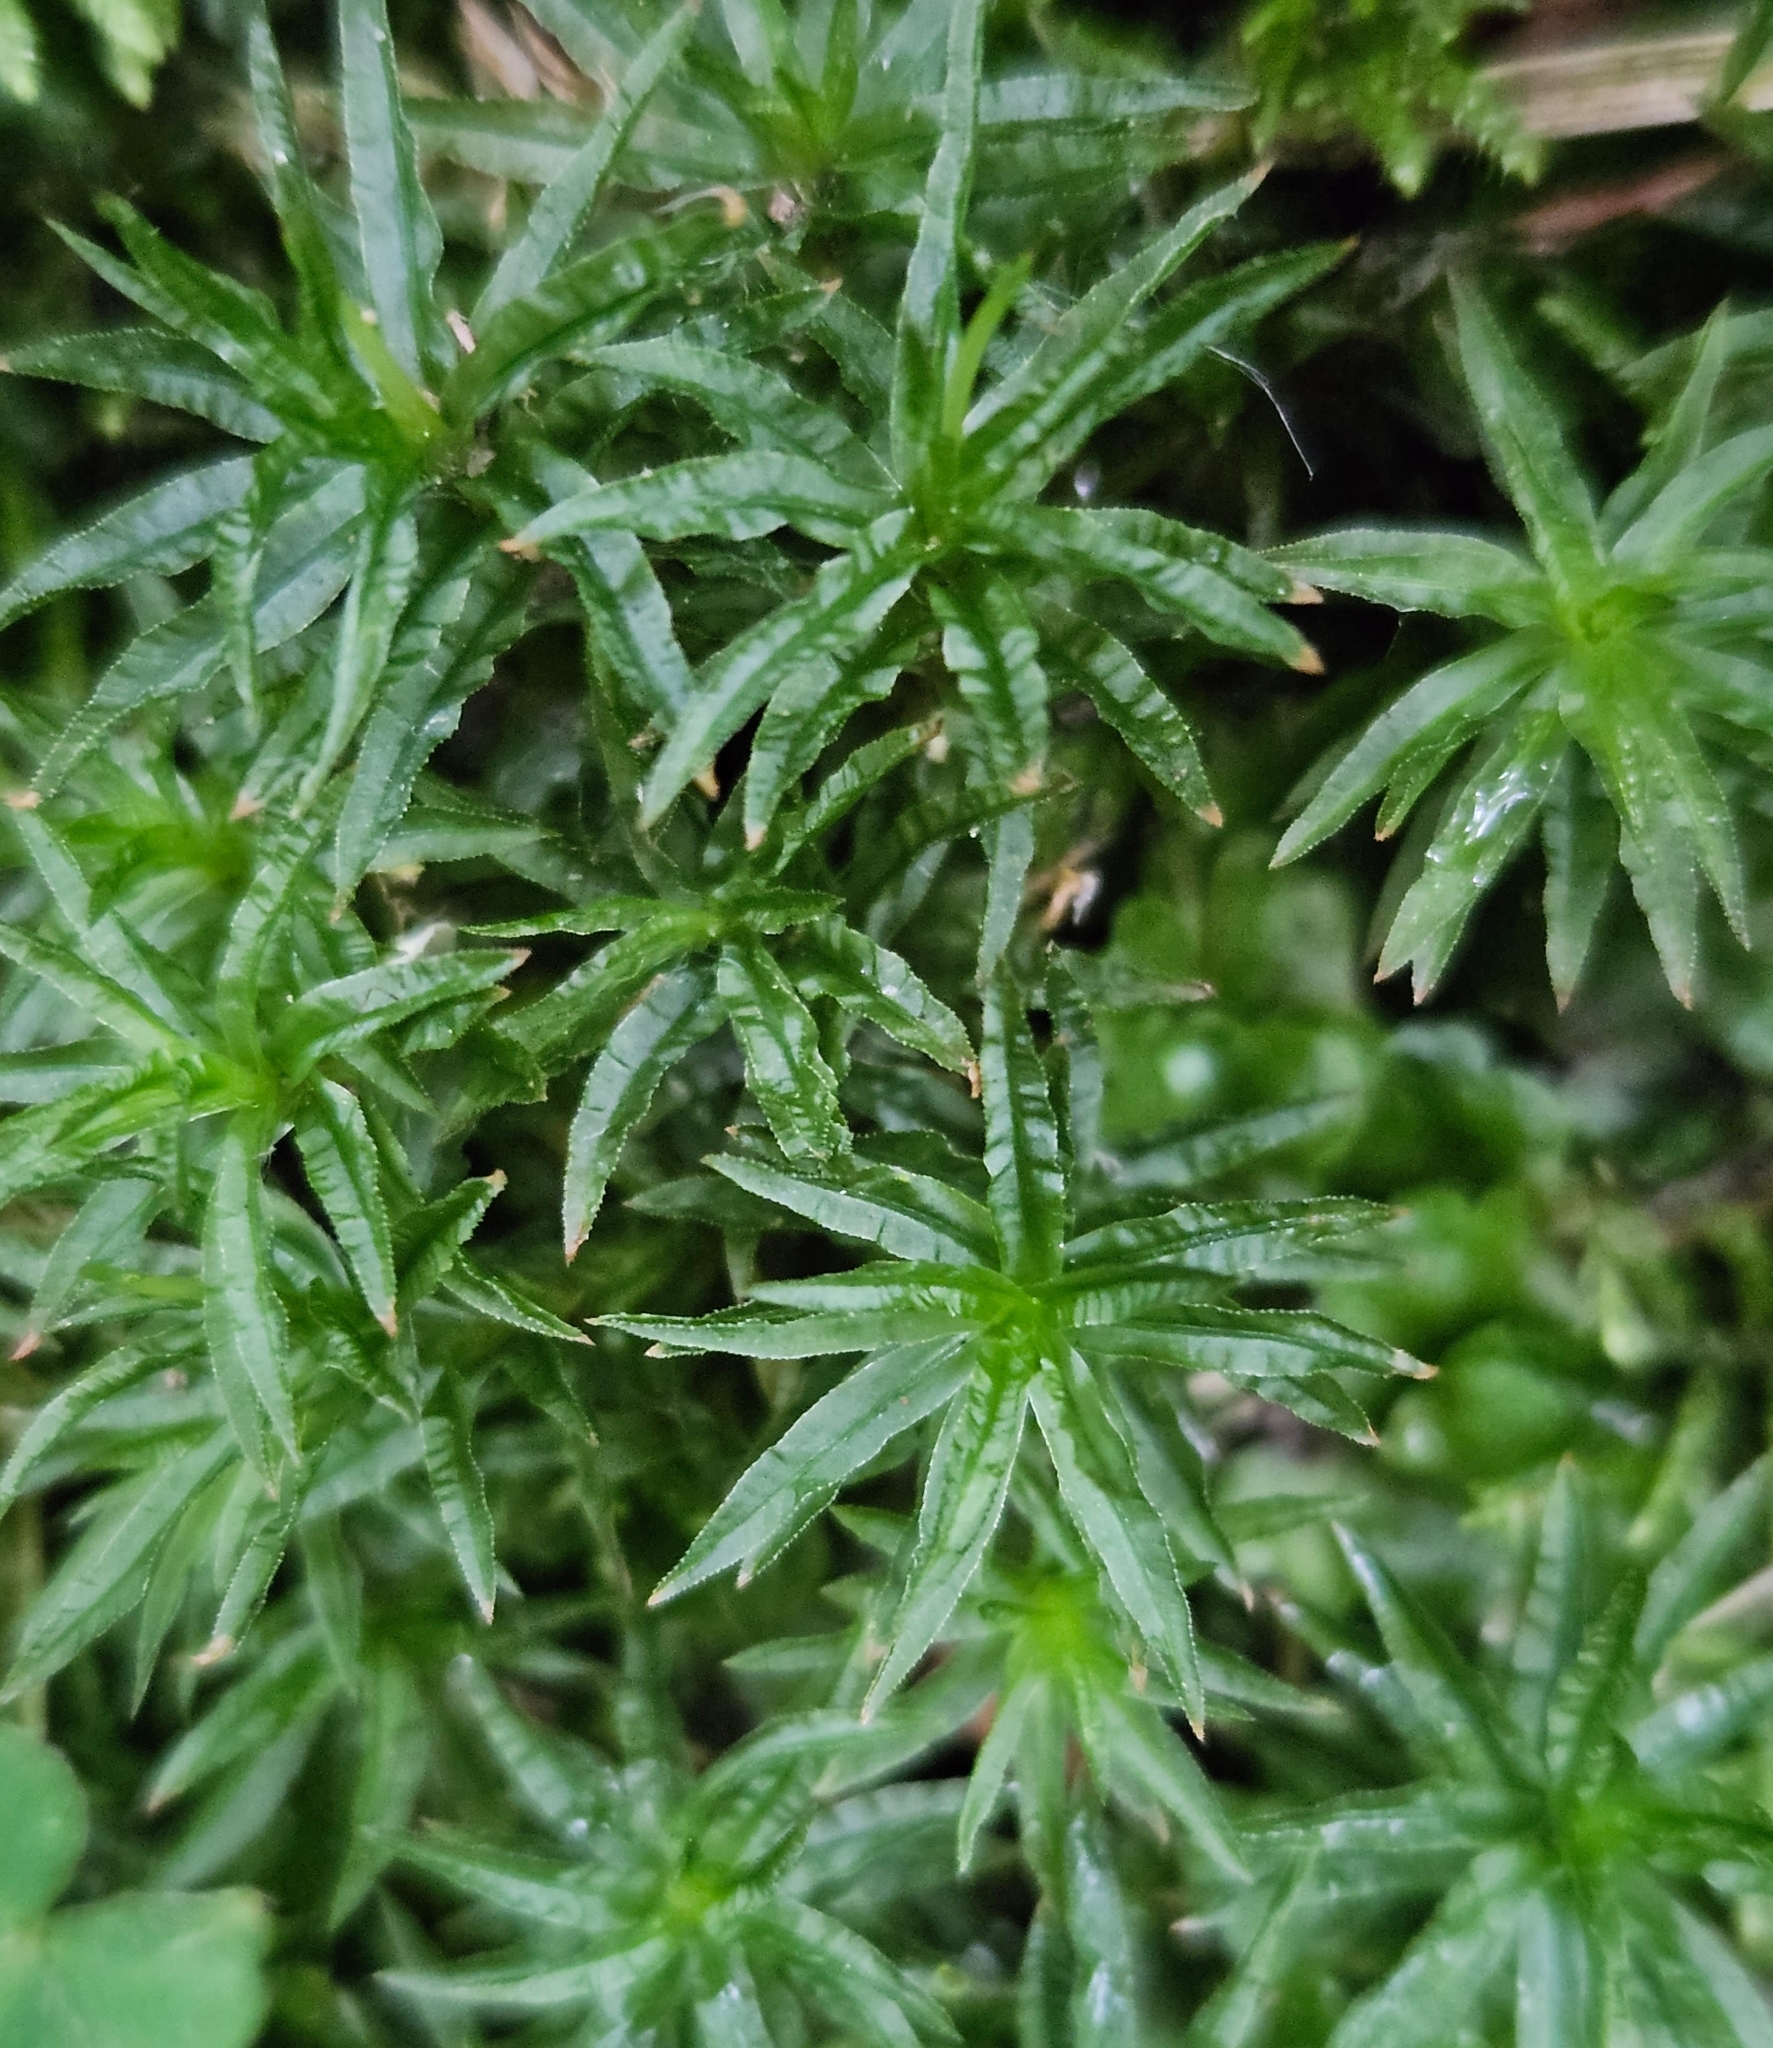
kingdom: Plantae
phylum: Bryophyta
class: Polytrichopsida
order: Polytrichales
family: Polytrichaceae
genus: Atrichum
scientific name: Atrichum undulatum
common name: Common smoothcap
